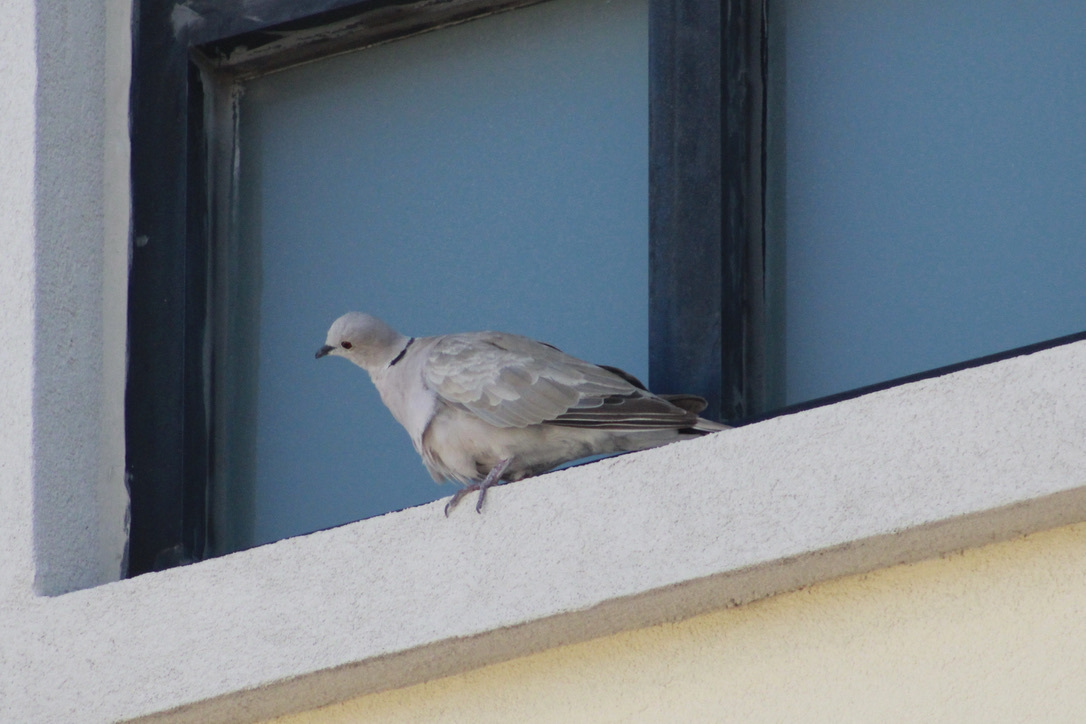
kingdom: Animalia
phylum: Chordata
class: Aves
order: Columbiformes
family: Columbidae
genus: Streptopelia
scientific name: Streptopelia decaocto
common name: Eurasian collared dove
